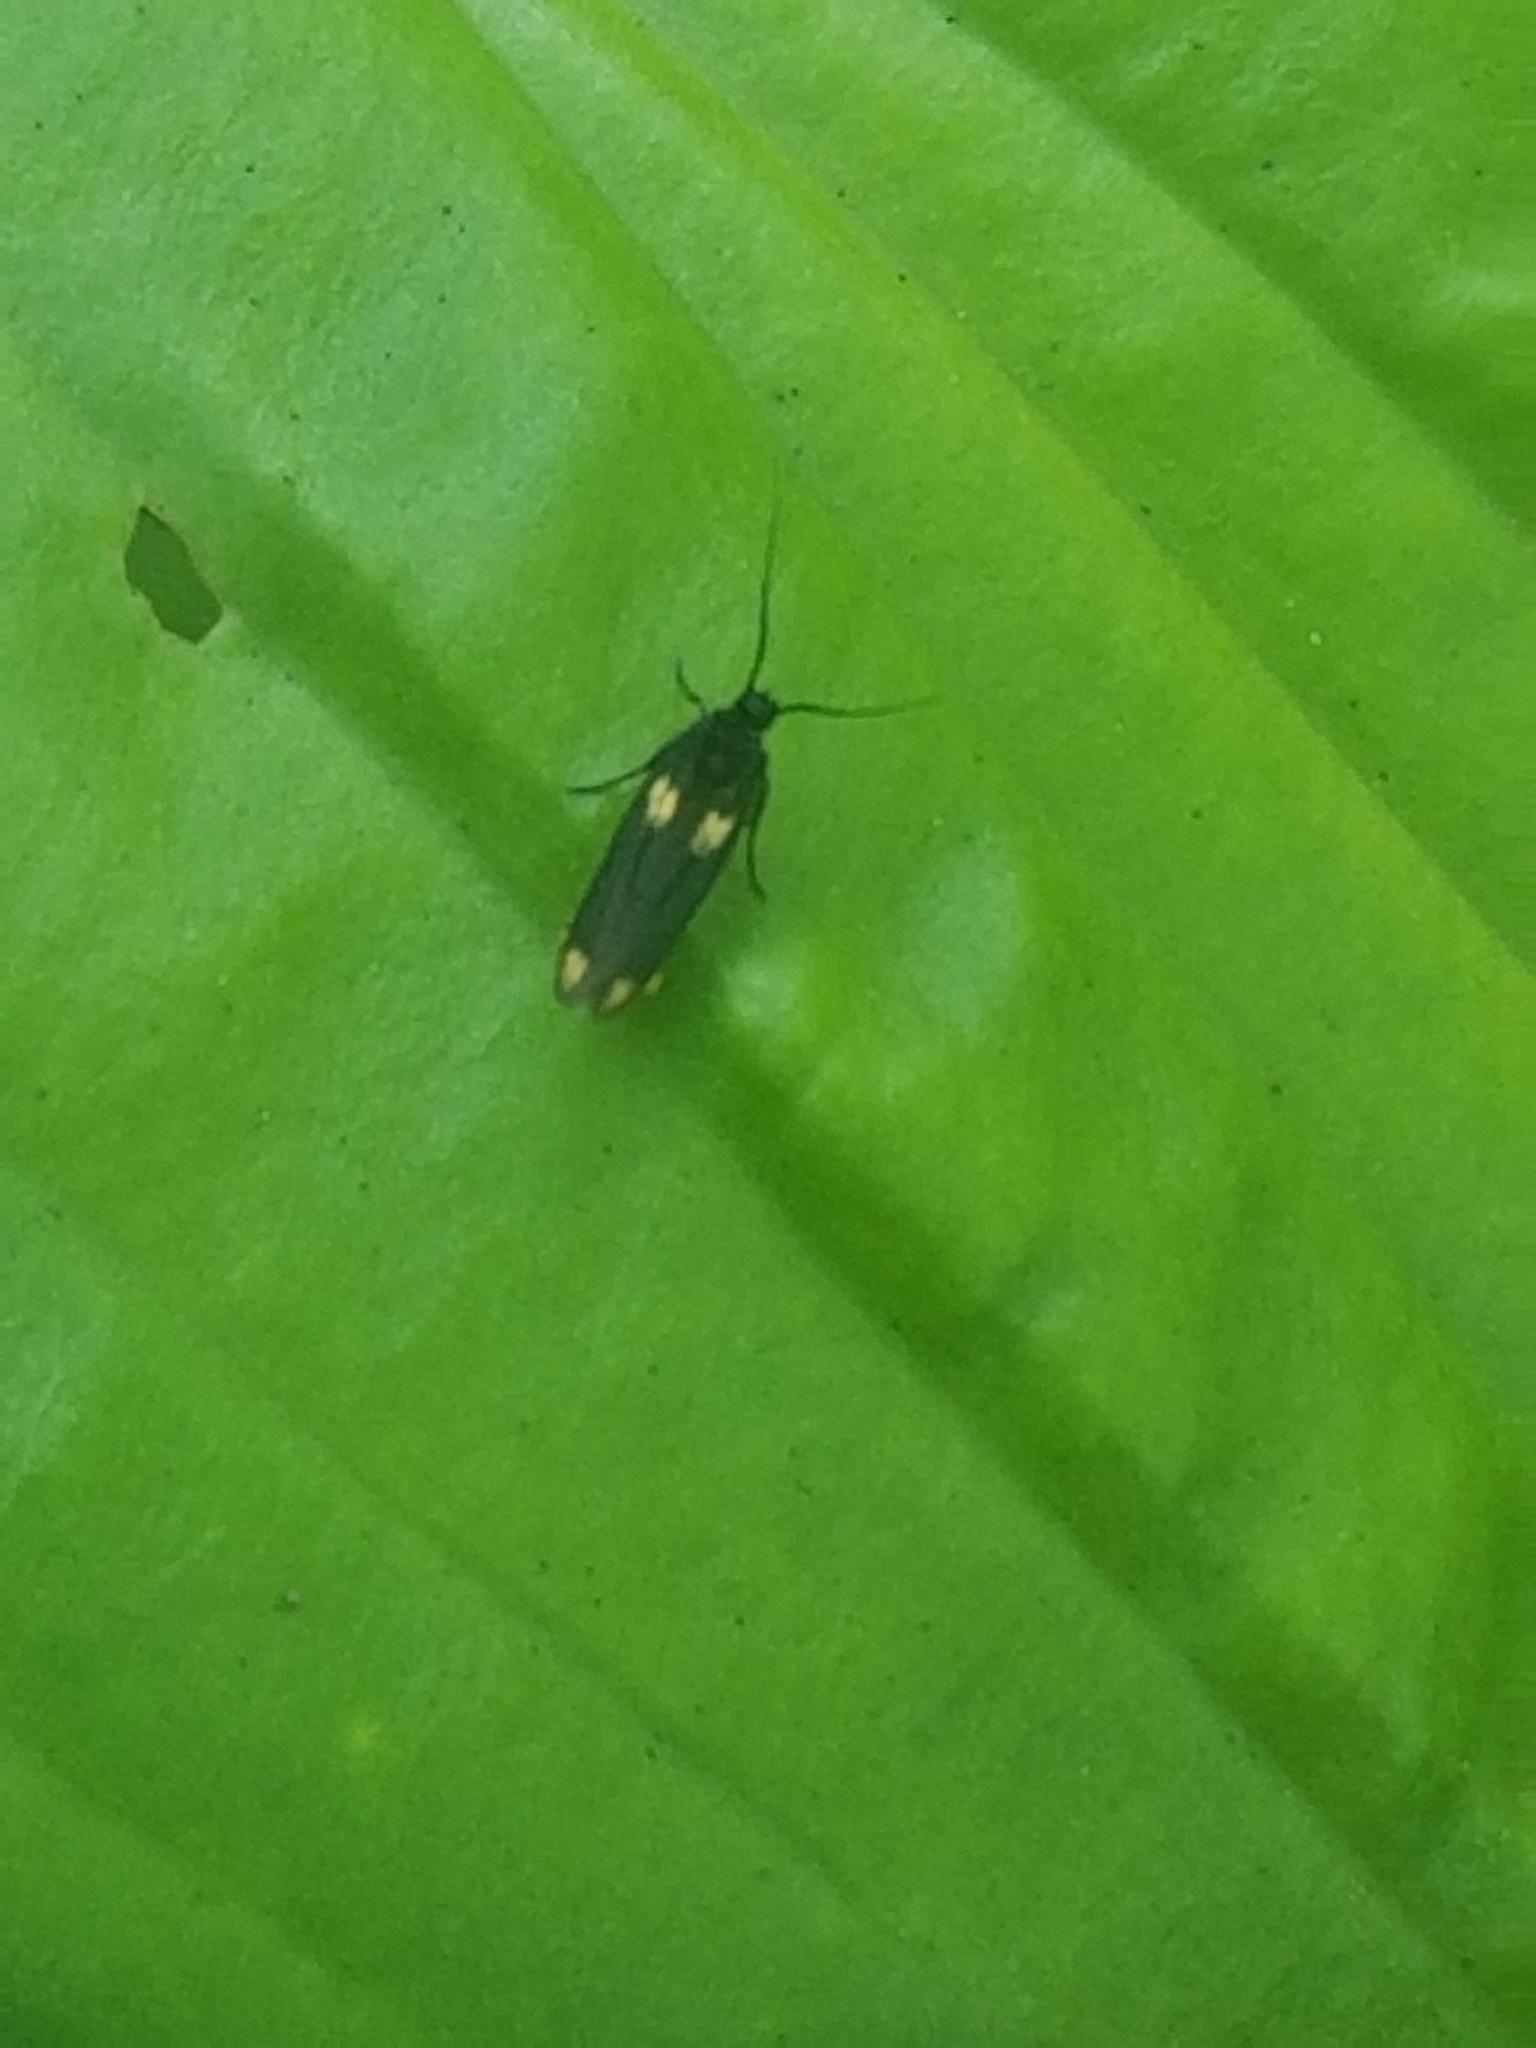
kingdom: Animalia
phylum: Arthropoda
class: Insecta
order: Lepidoptera
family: Scythrididae
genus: Scythris
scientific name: Scythris sinensis
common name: Kentish owlet
